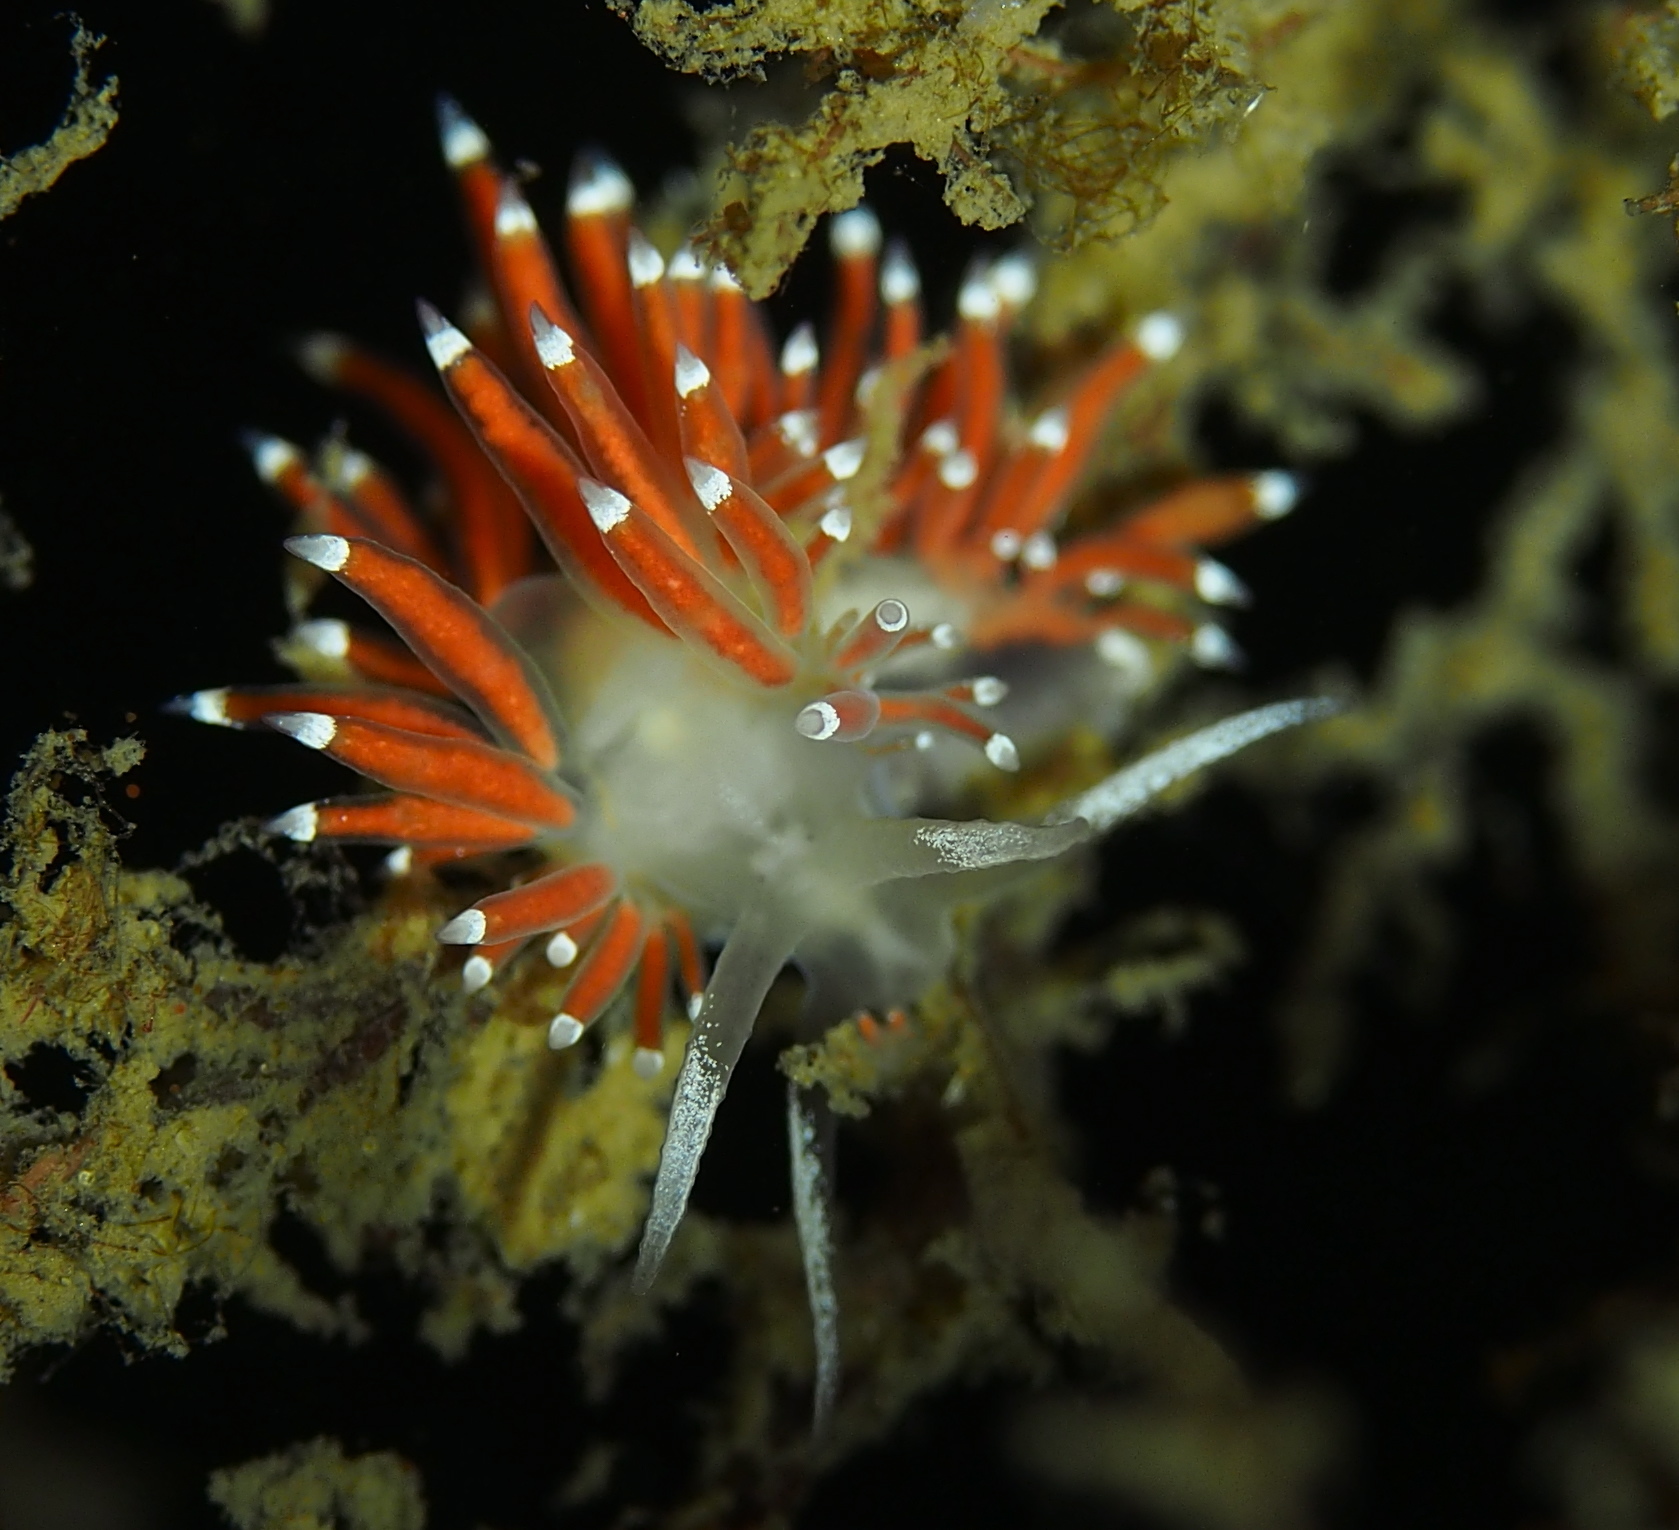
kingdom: Animalia
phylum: Mollusca
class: Gastropoda
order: Nudibranchia
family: Coryphellidae
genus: Coryphella
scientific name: Coryphella gracilis
